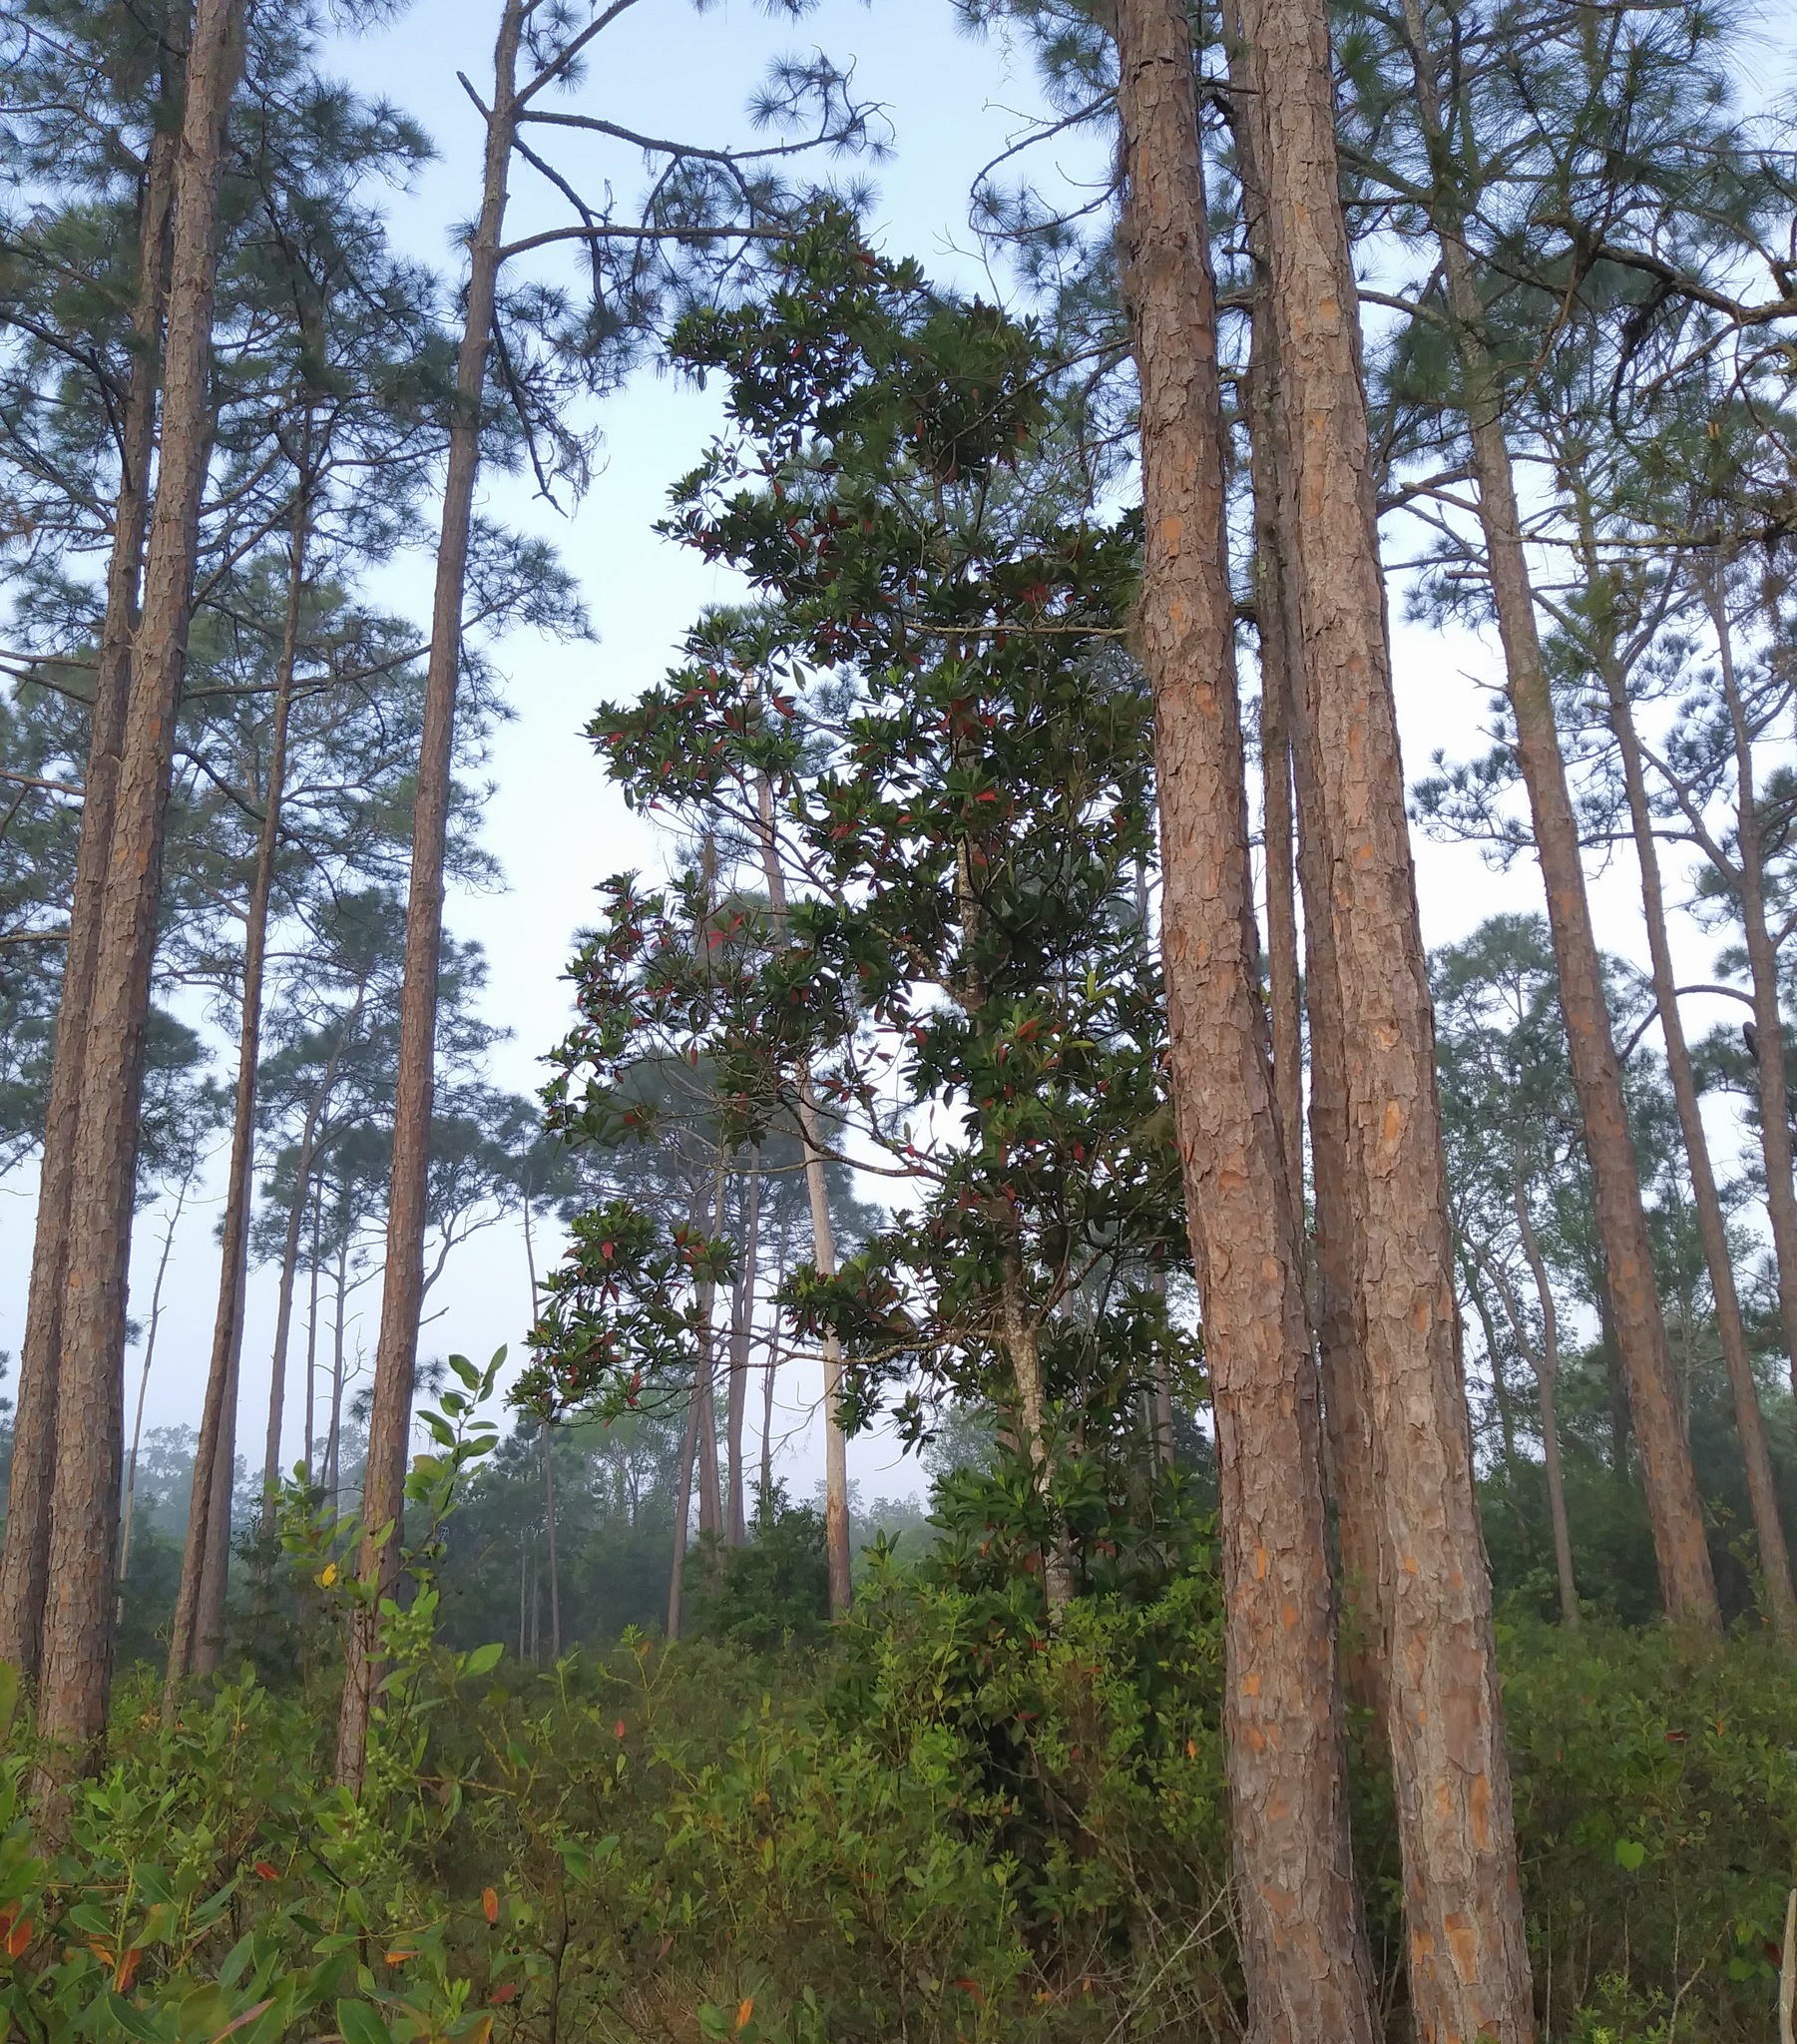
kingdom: Plantae
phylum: Tracheophyta
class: Magnoliopsida
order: Ericales
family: Theaceae
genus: Gordonia
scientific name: Gordonia lasianthus
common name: Loblolly bay
